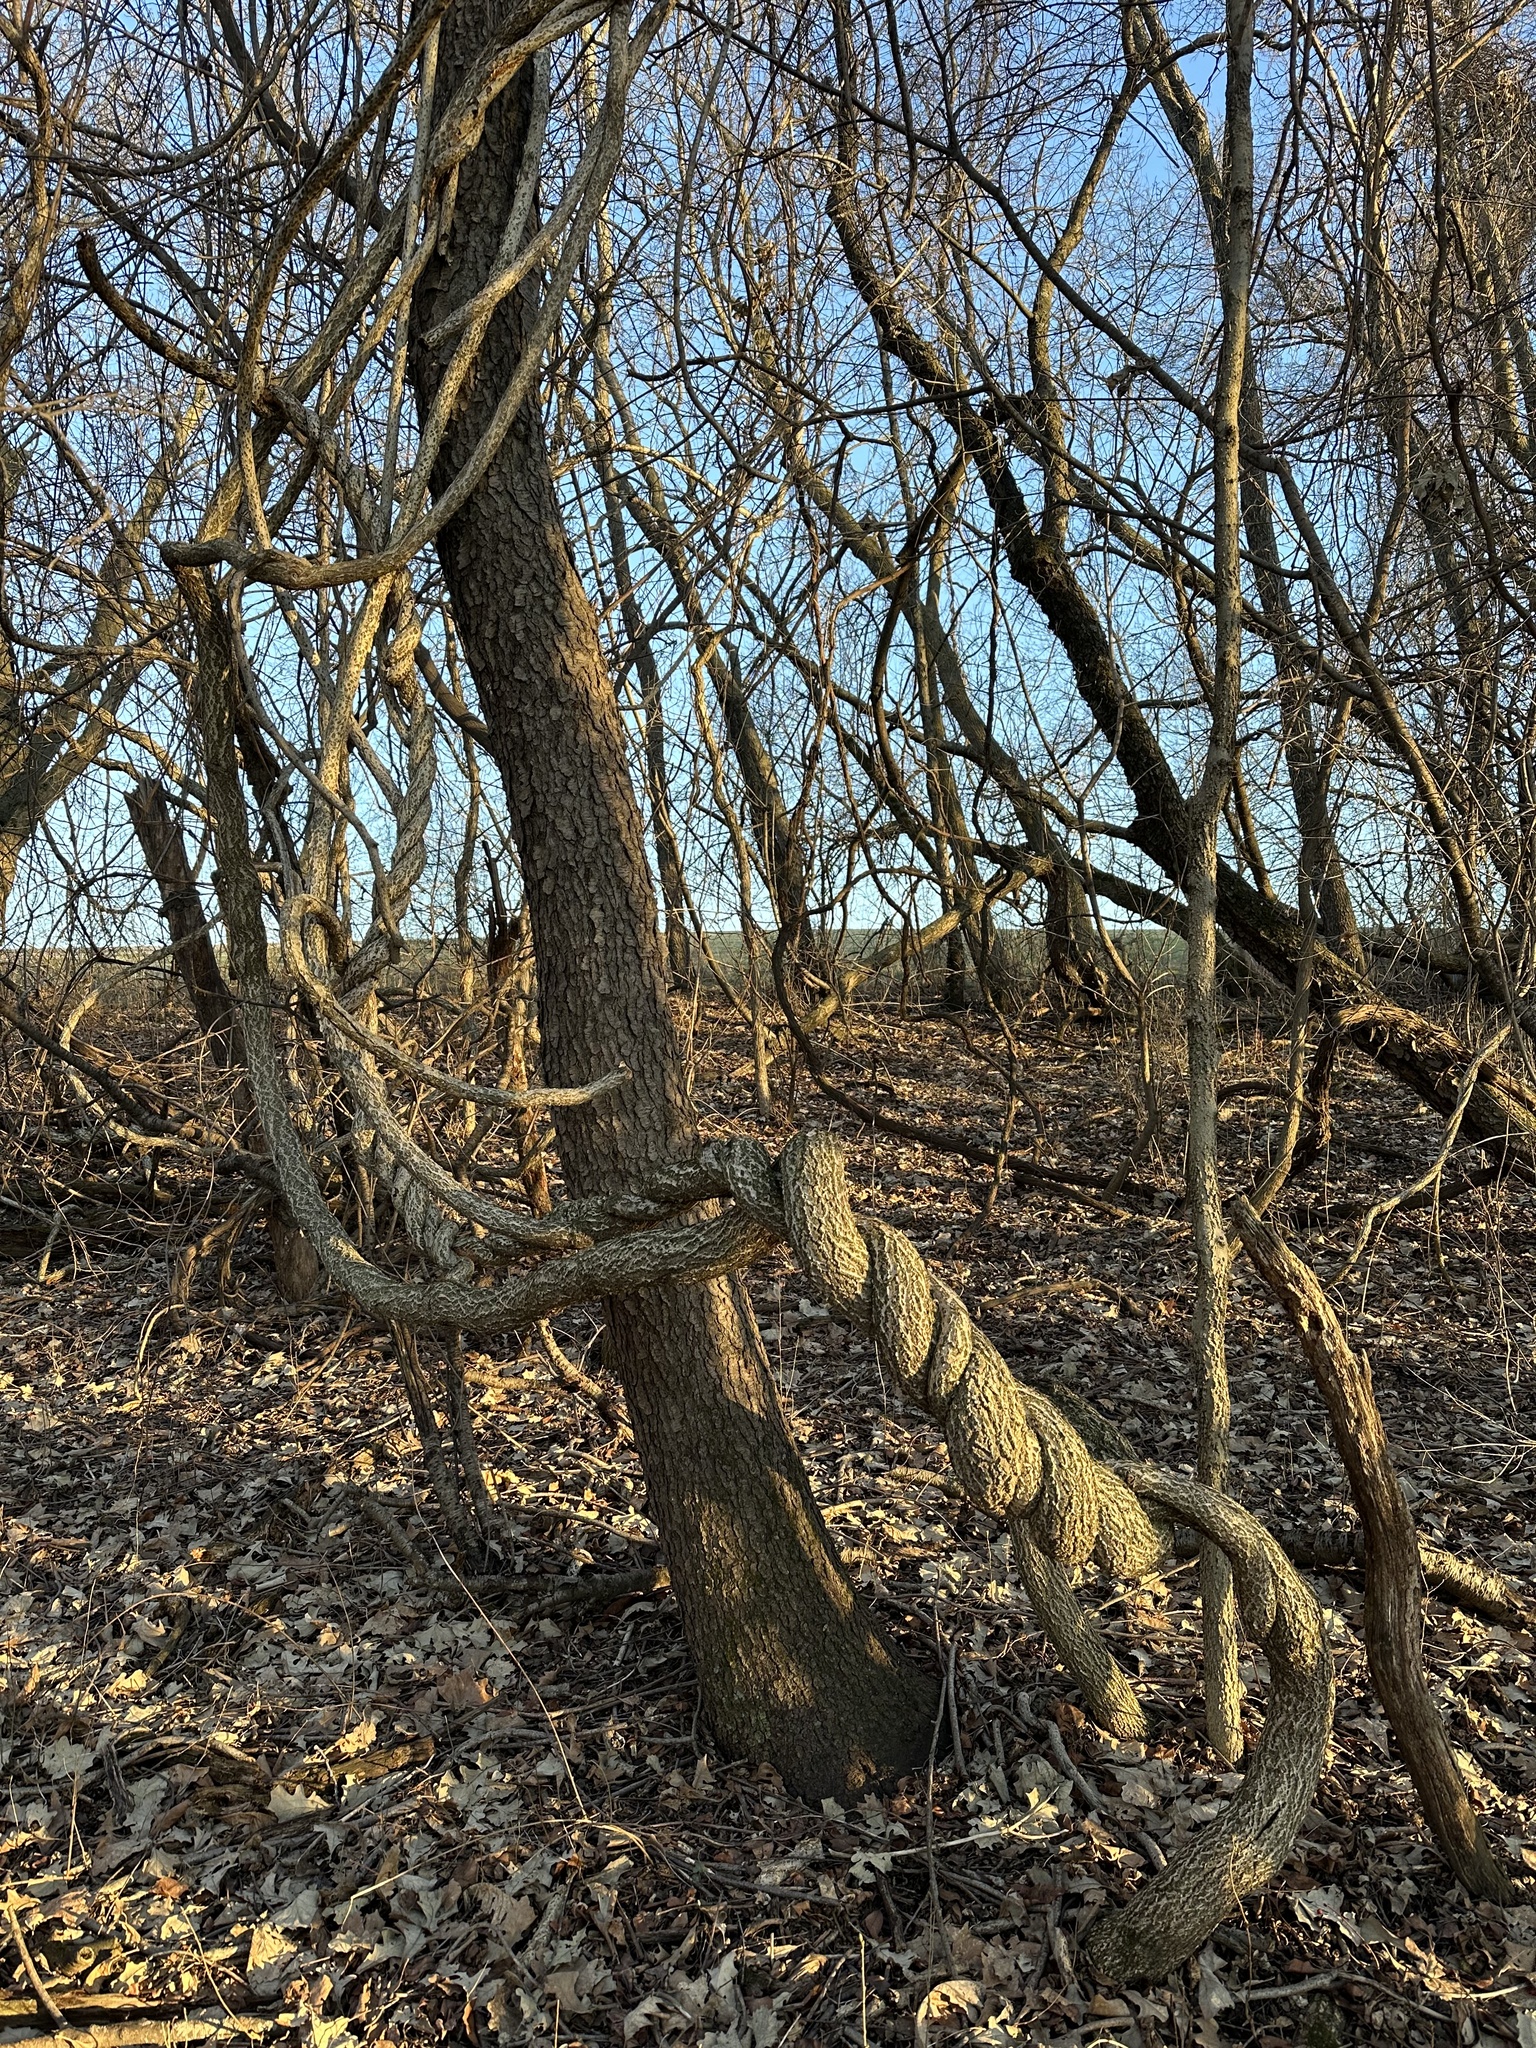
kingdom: Plantae
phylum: Tracheophyta
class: Magnoliopsida
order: Celastrales
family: Celastraceae
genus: Celastrus
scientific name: Celastrus orbiculatus
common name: Oriental bittersweet
